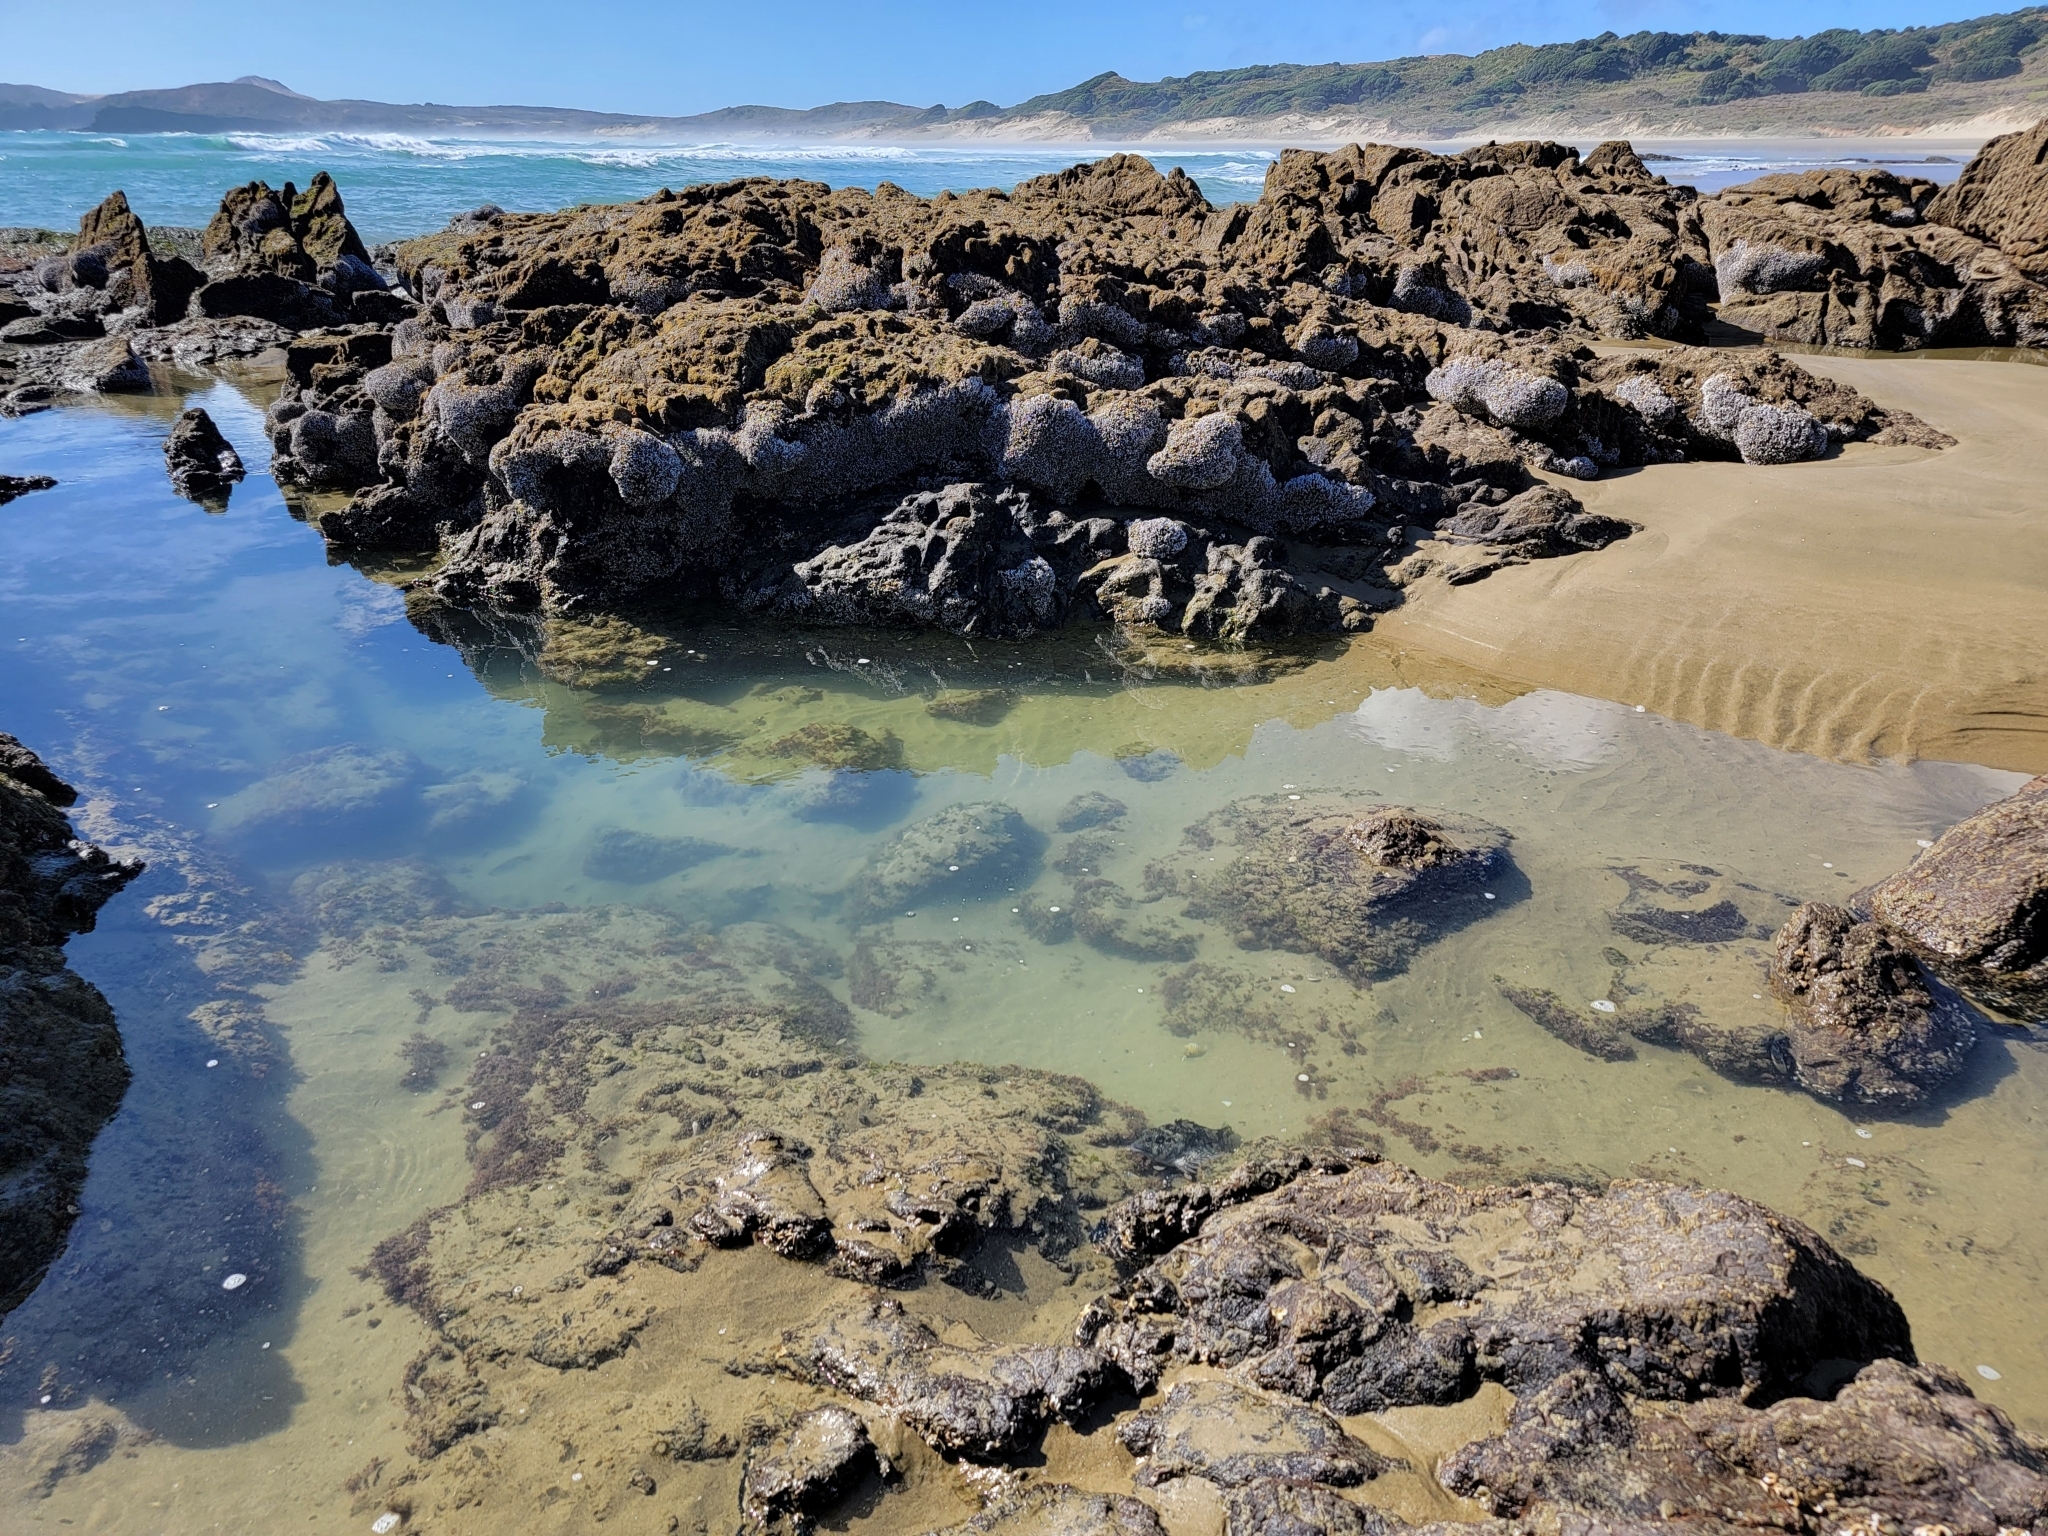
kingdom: Animalia
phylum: Chordata
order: Perciformes
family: Chironemidae
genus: Chironemus
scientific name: Chironemus marmoratus
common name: Kelpfish
